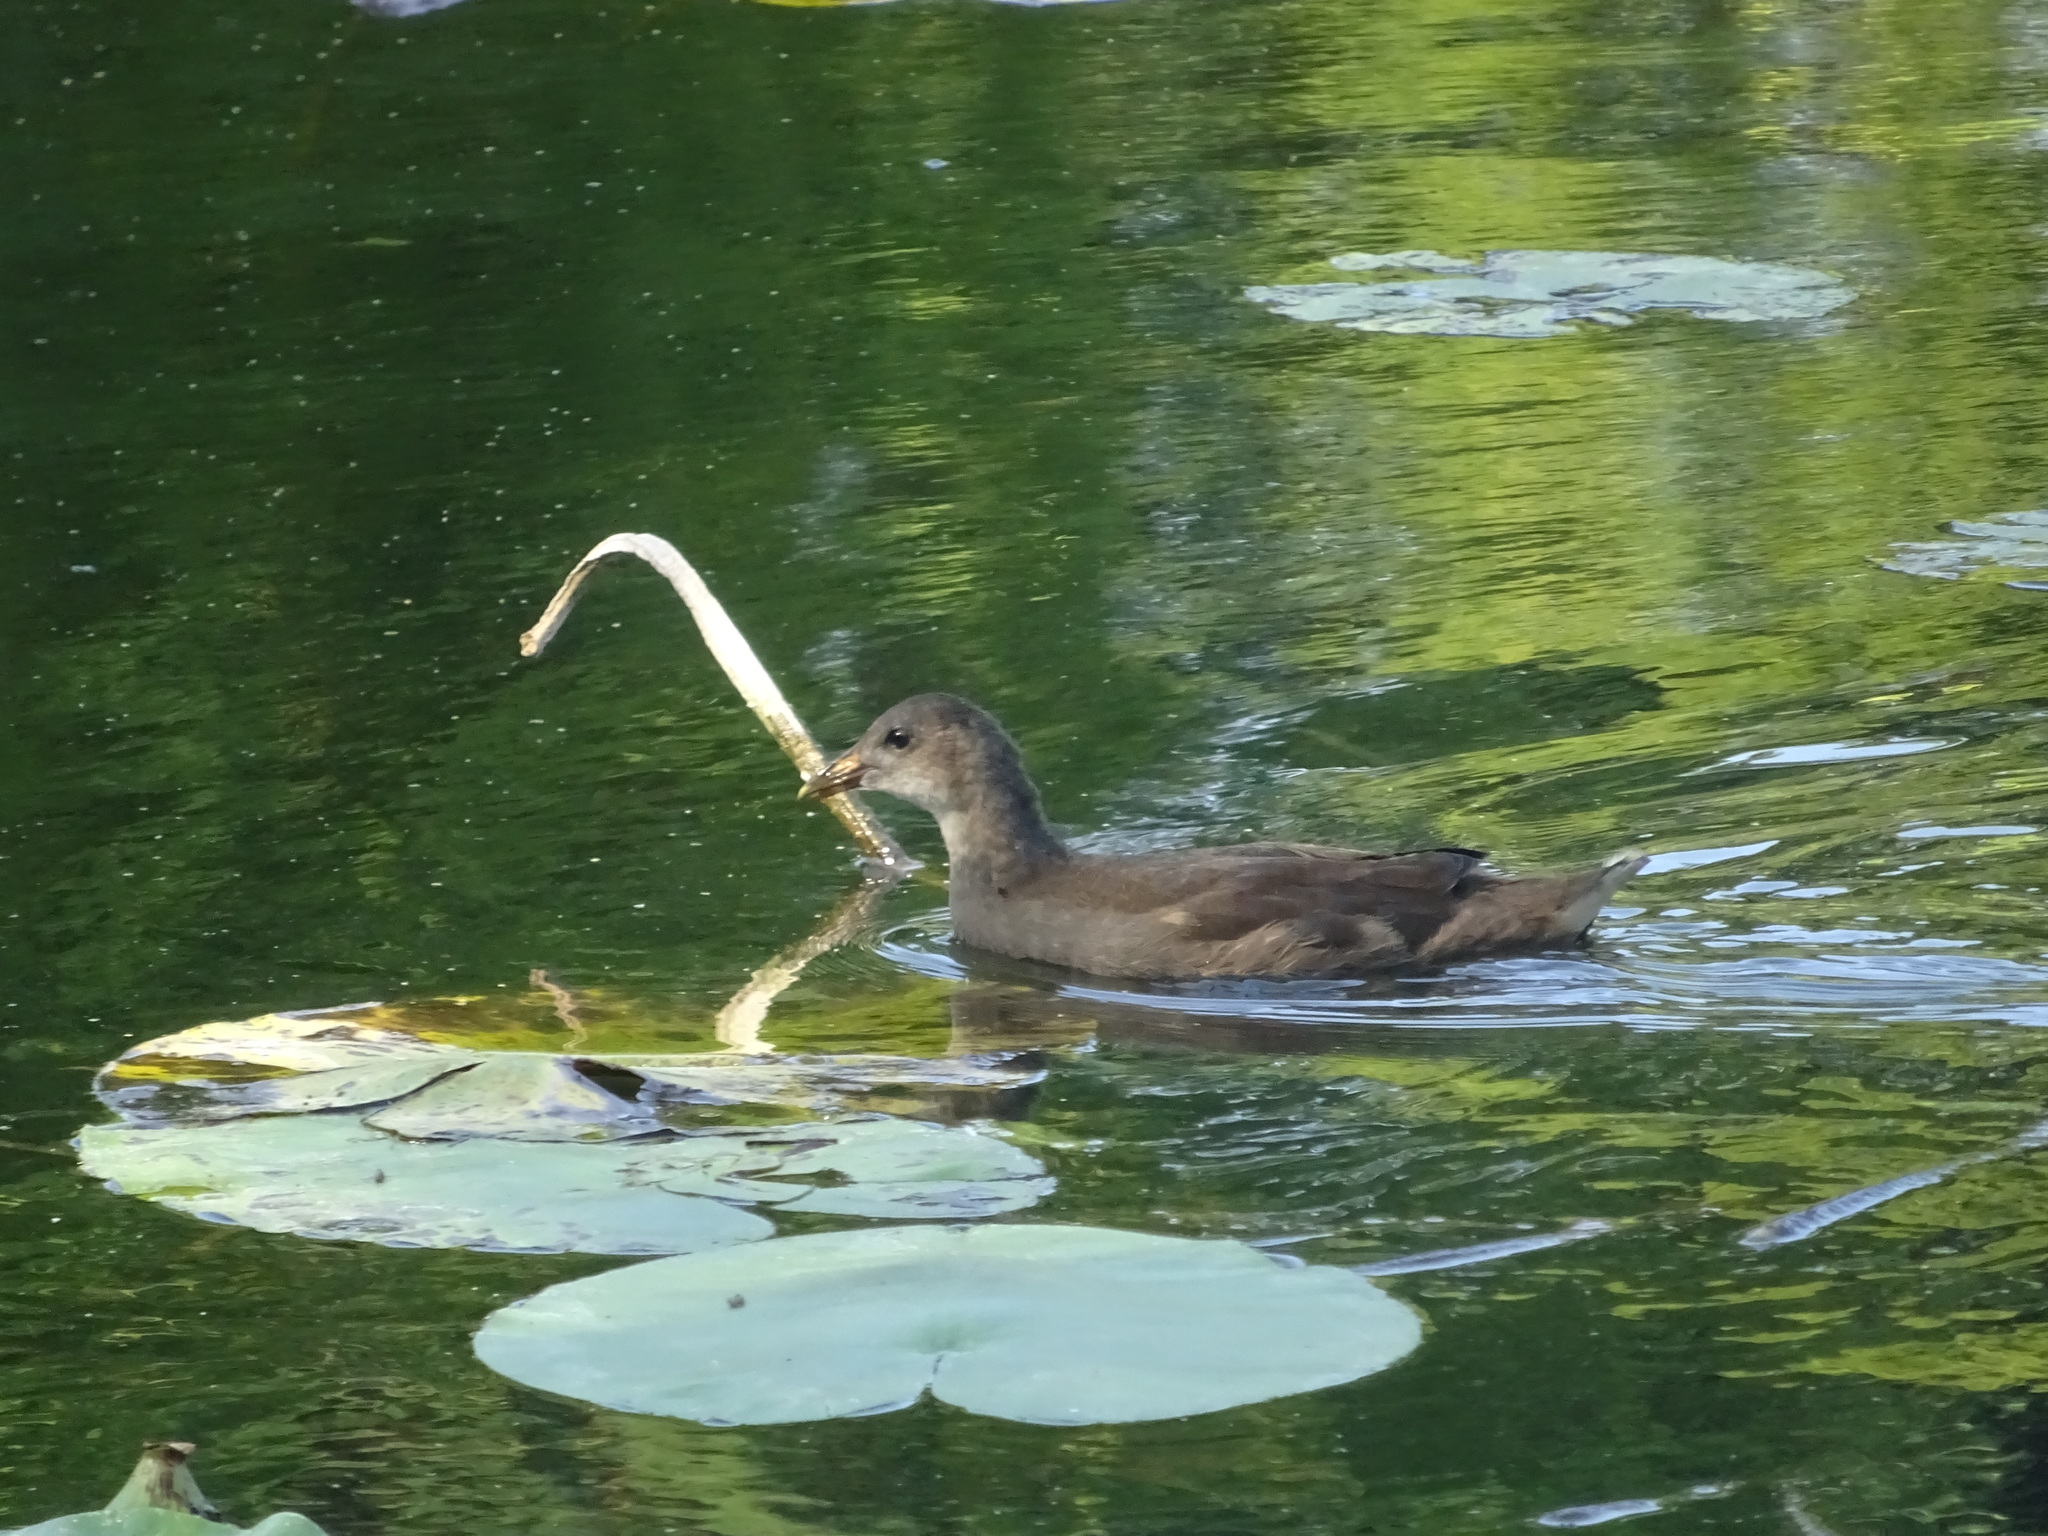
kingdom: Animalia
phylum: Chordata
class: Aves
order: Gruiformes
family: Rallidae
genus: Gallinula
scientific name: Gallinula chloropus
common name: Common moorhen
